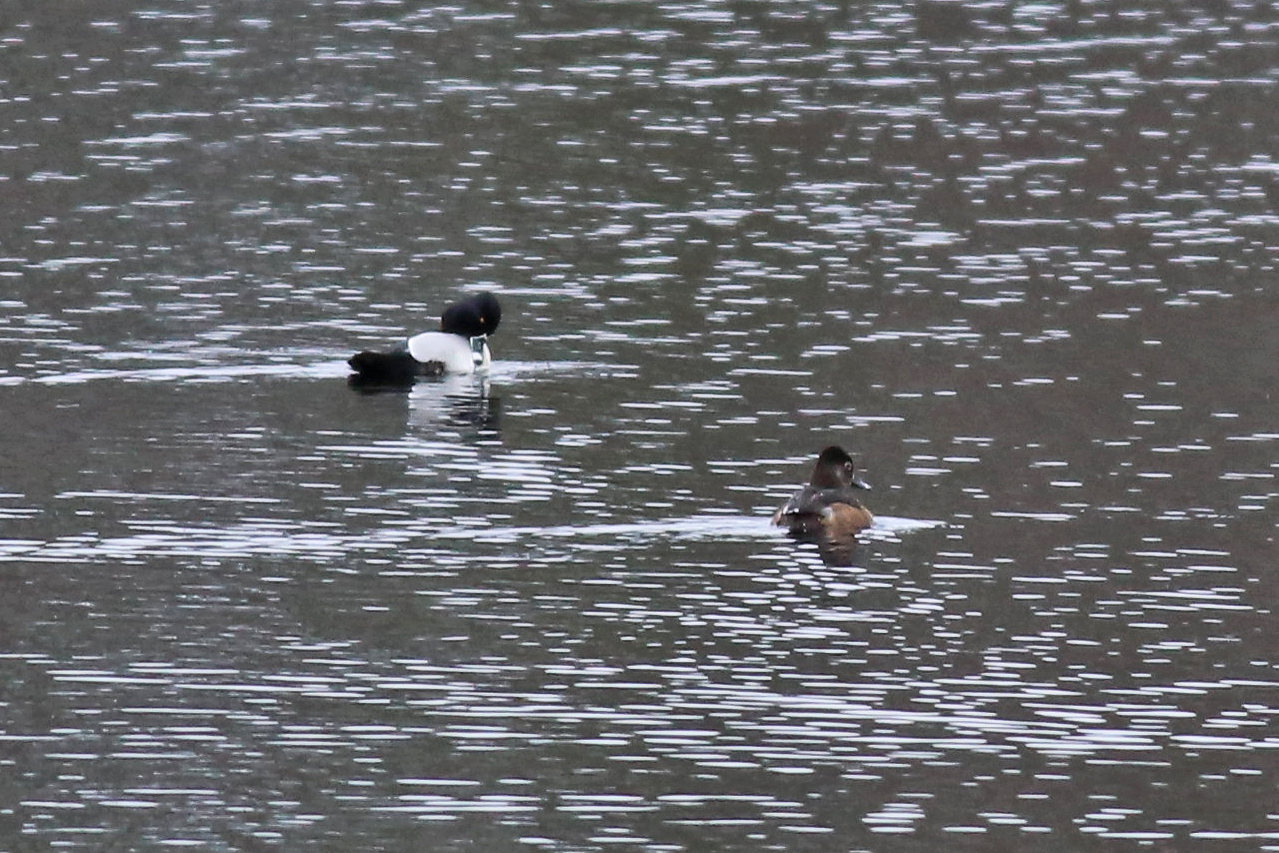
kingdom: Animalia
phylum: Chordata
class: Aves
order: Anseriformes
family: Anatidae
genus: Aythya
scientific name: Aythya collaris
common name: Ring-necked duck
